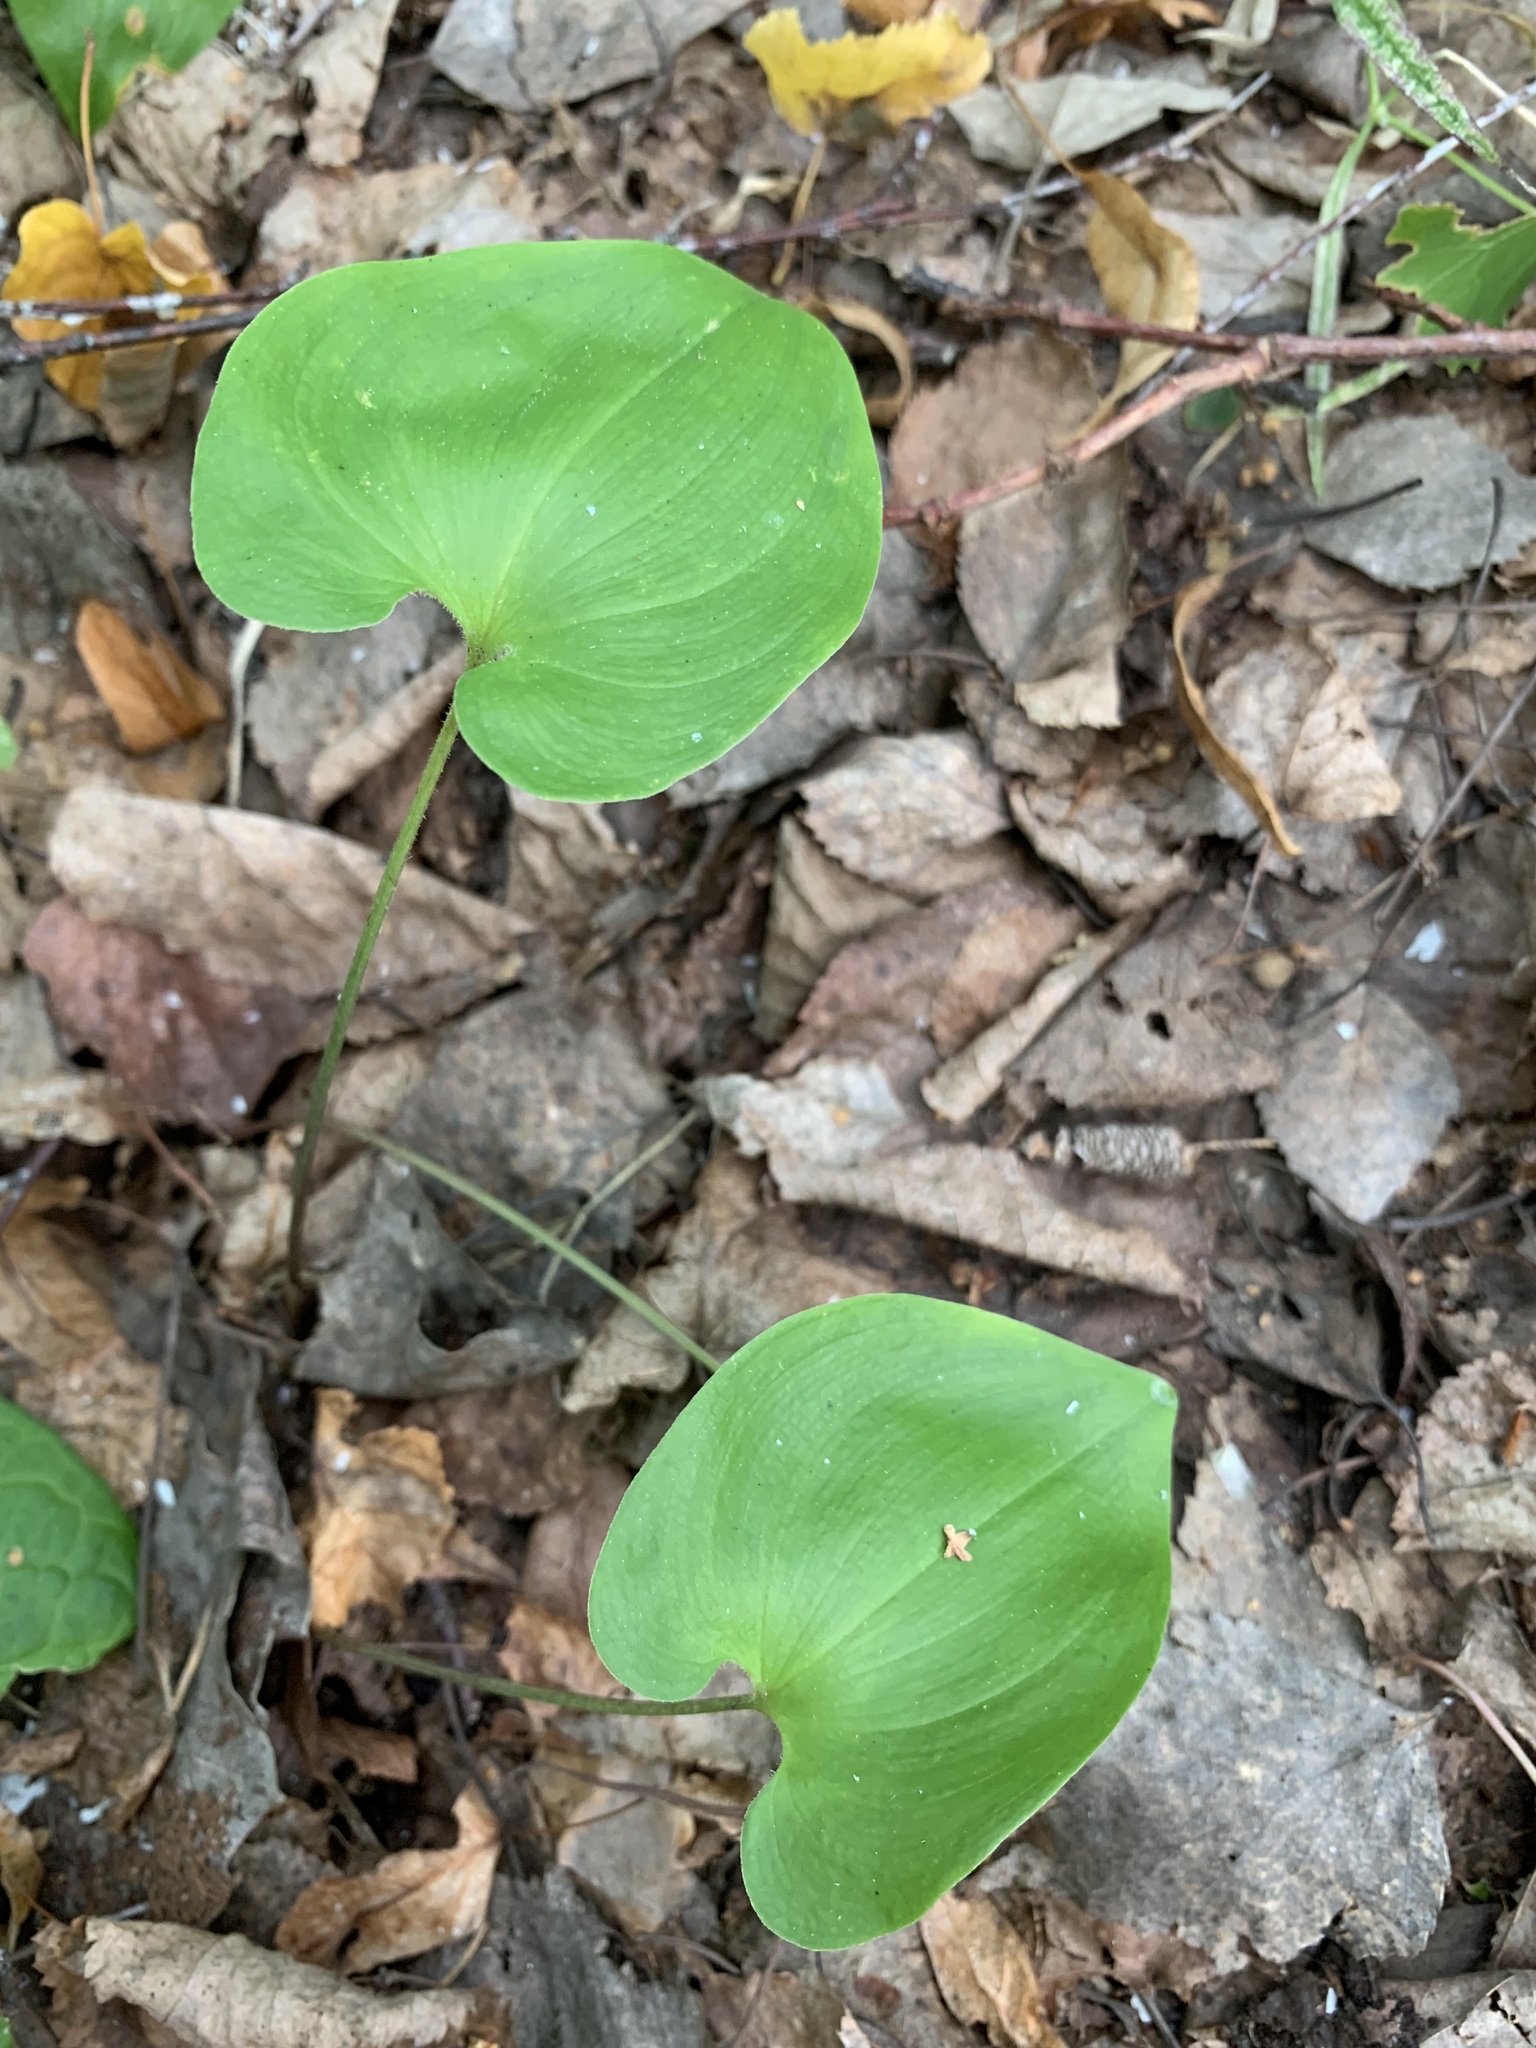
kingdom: Plantae
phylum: Tracheophyta
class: Liliopsida
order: Asparagales
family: Asparagaceae
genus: Maianthemum
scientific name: Maianthemum bifolium
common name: May lily
